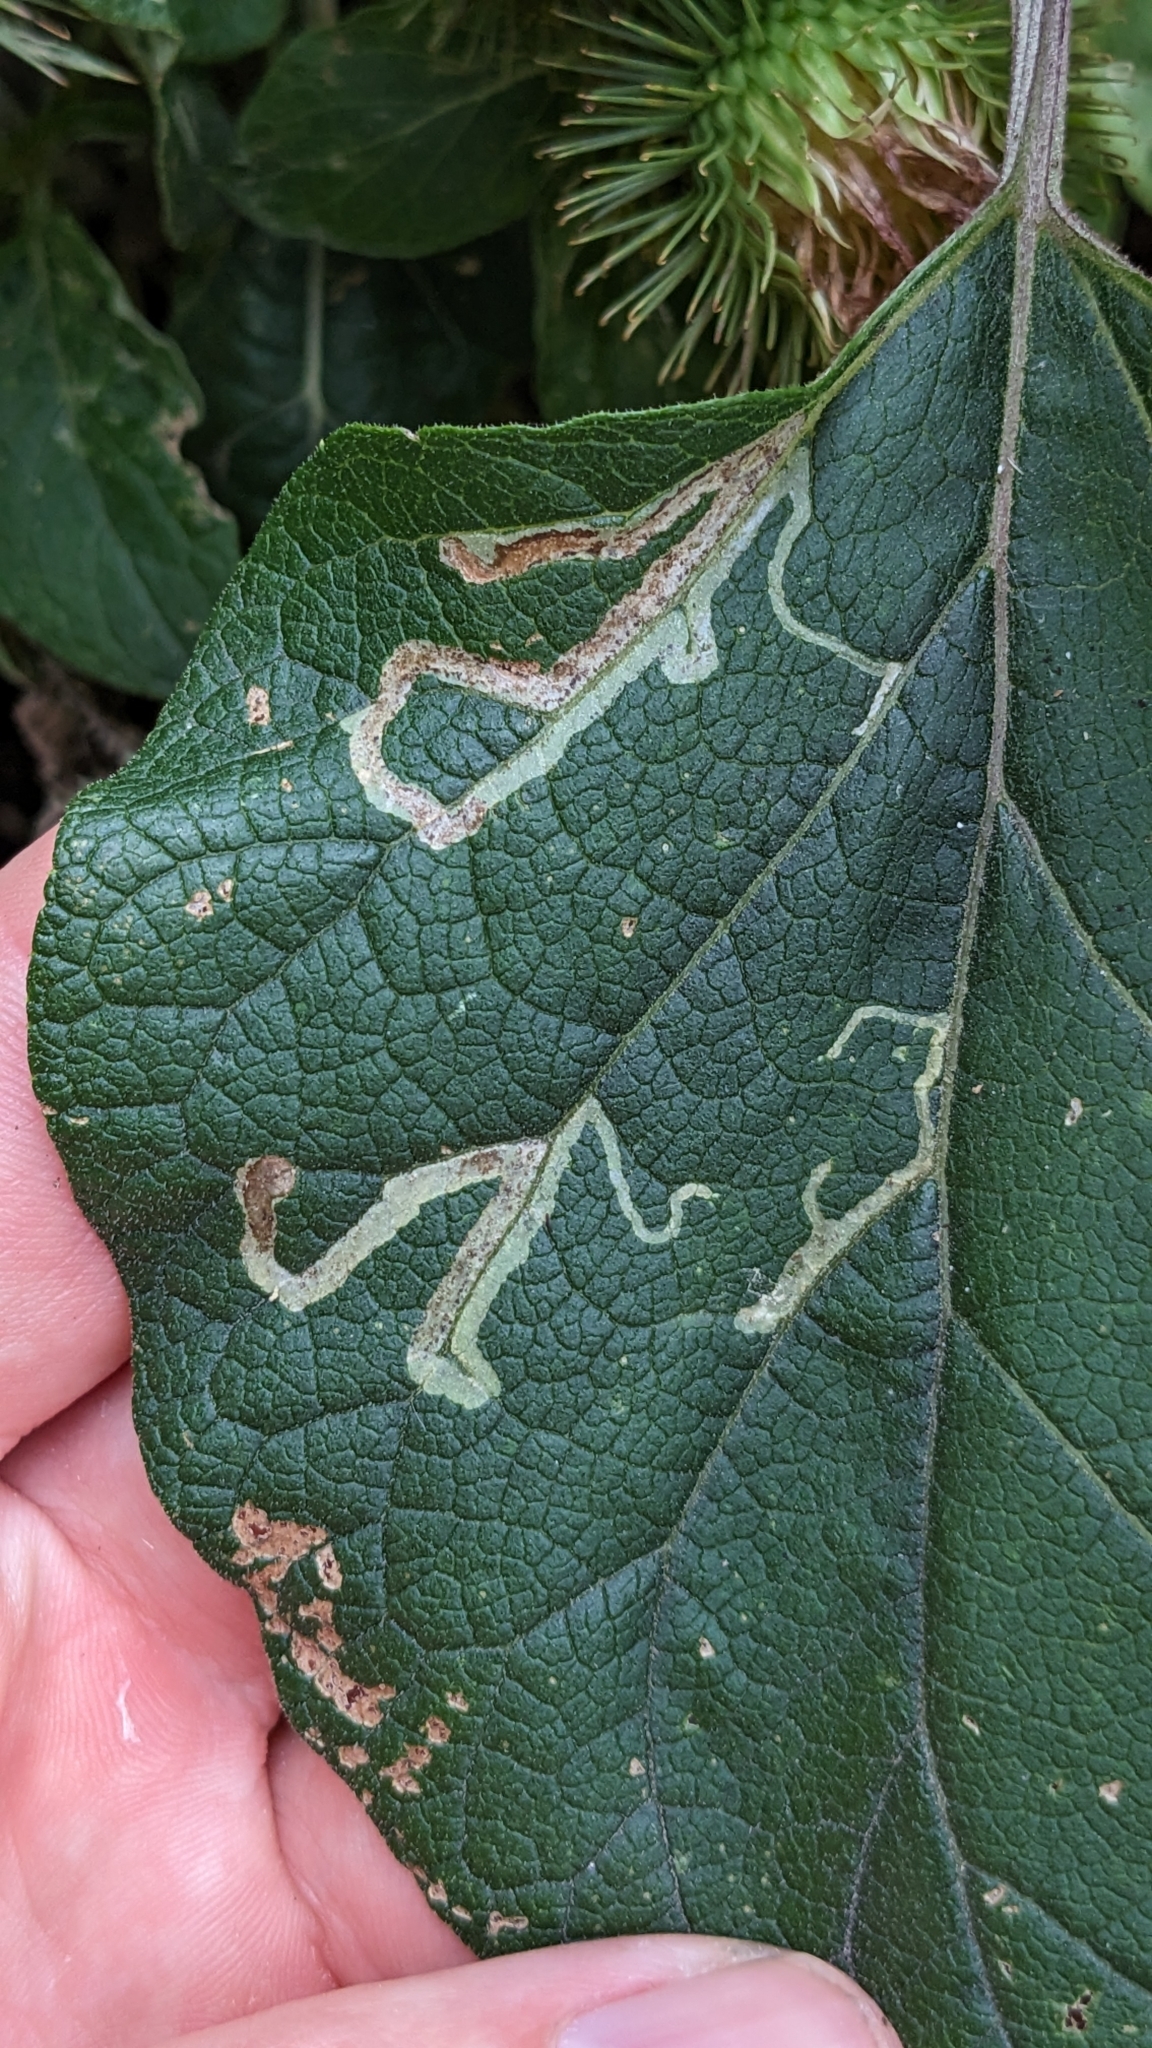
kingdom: Animalia
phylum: Arthropoda
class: Insecta
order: Diptera
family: Agromyzidae
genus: Phytomyza
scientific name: Phytomyza lappae
